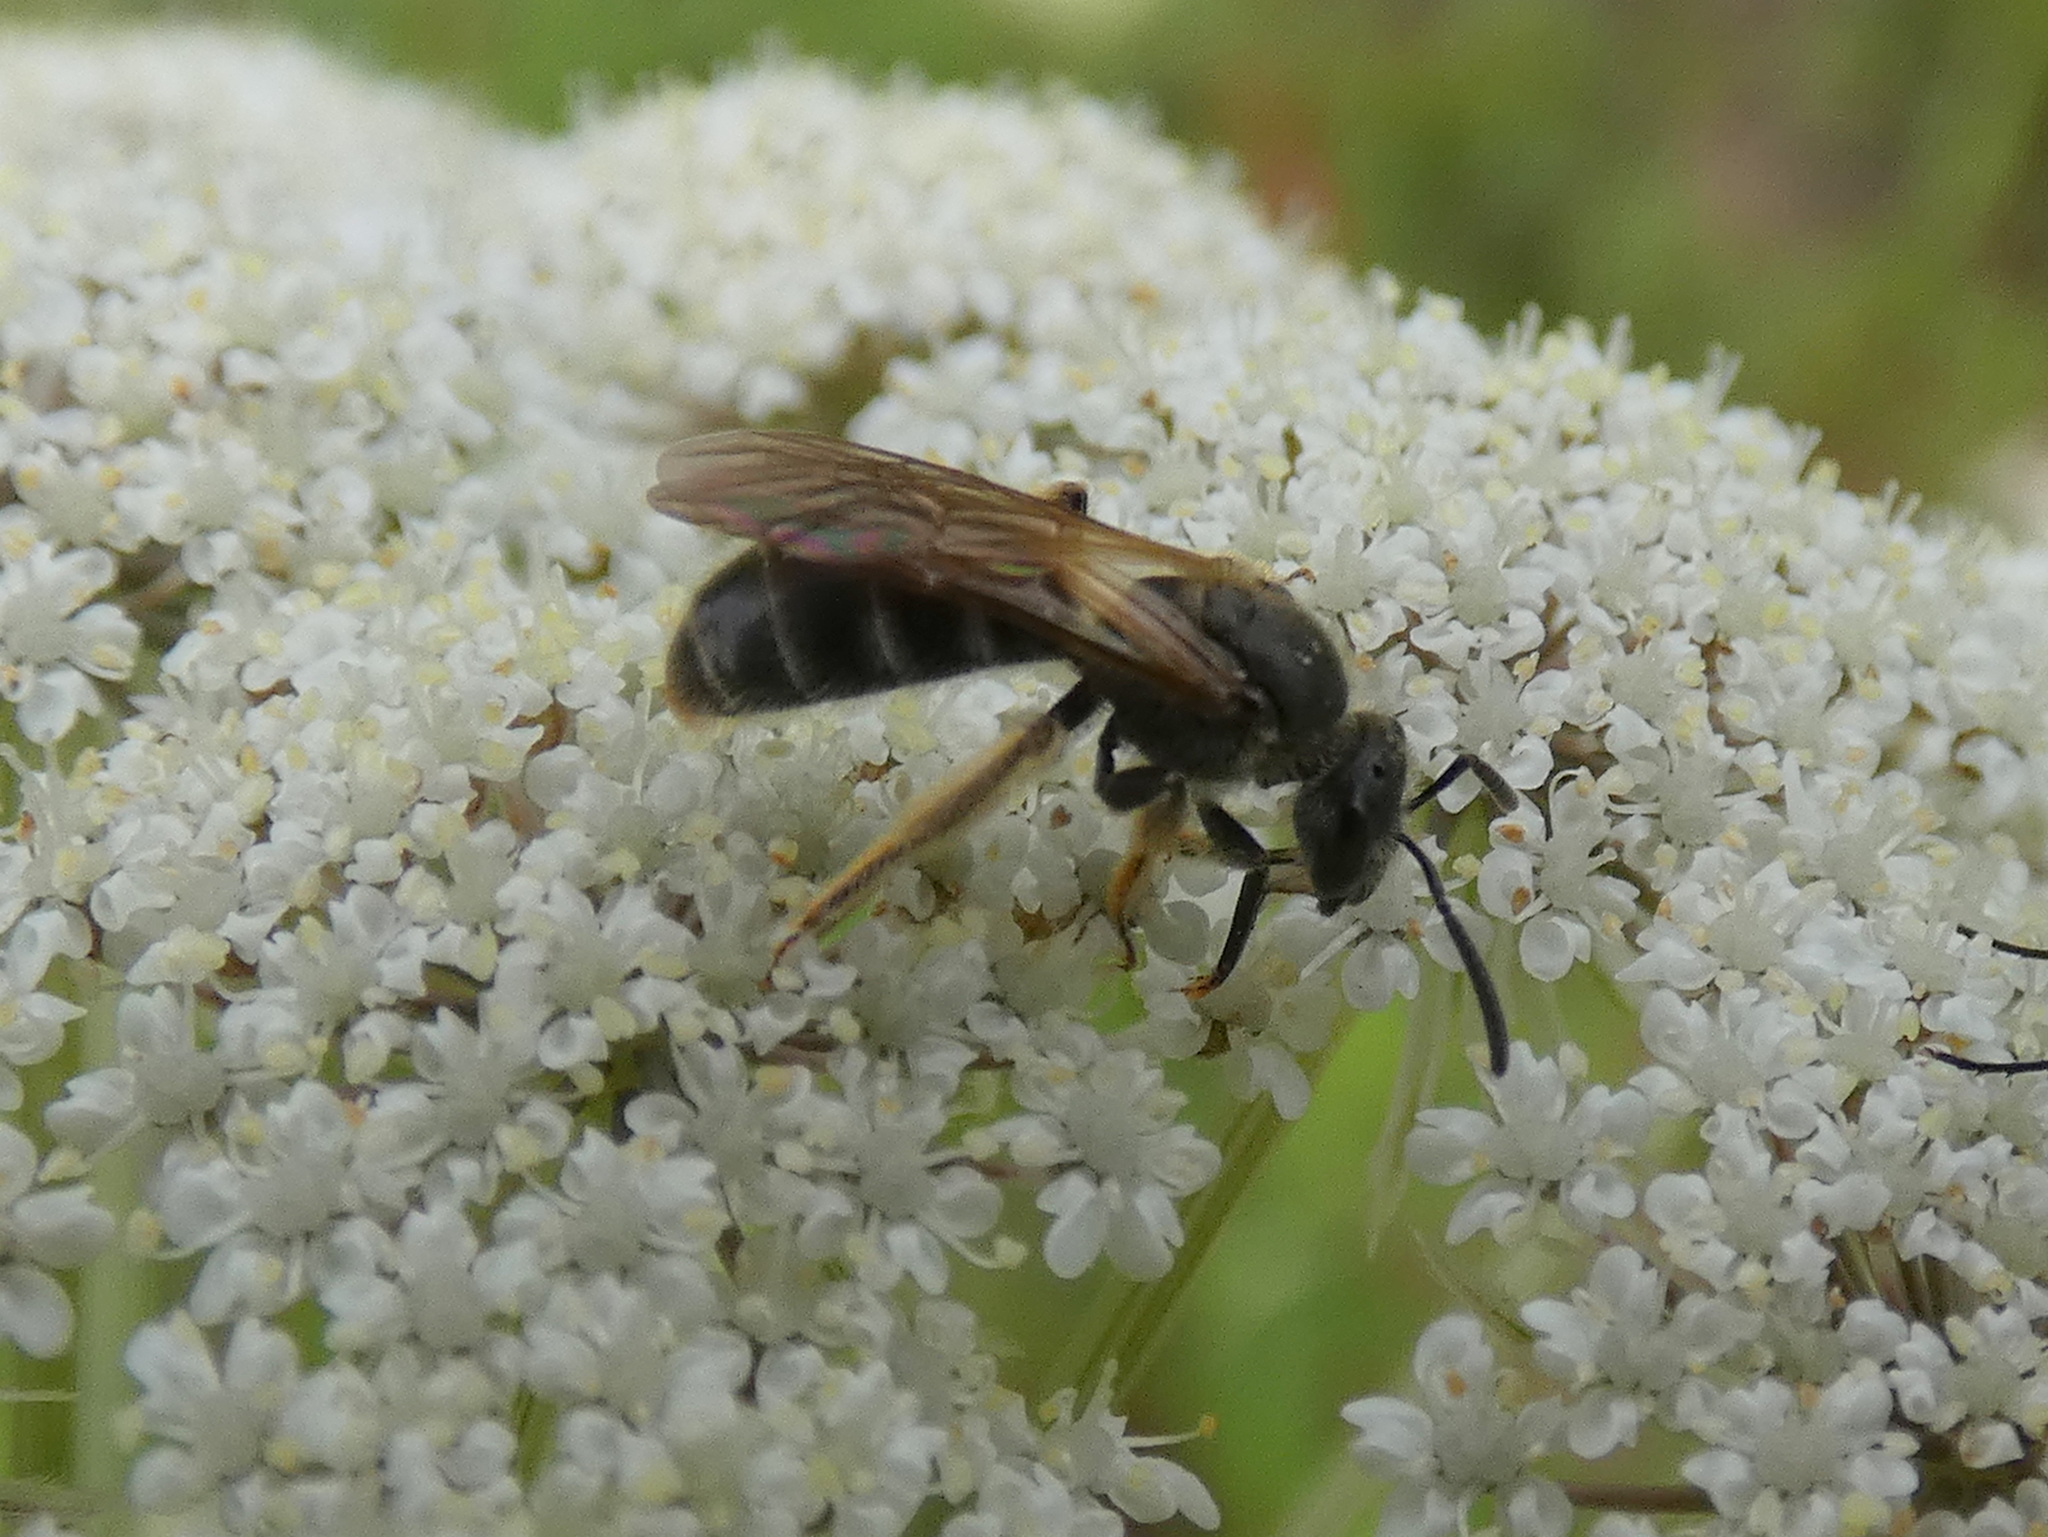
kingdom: Animalia
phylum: Arthropoda
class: Insecta
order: Hymenoptera
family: Halictidae
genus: Lasioglossum
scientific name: Lasioglossum quebecense
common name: Quebec sweat bee
